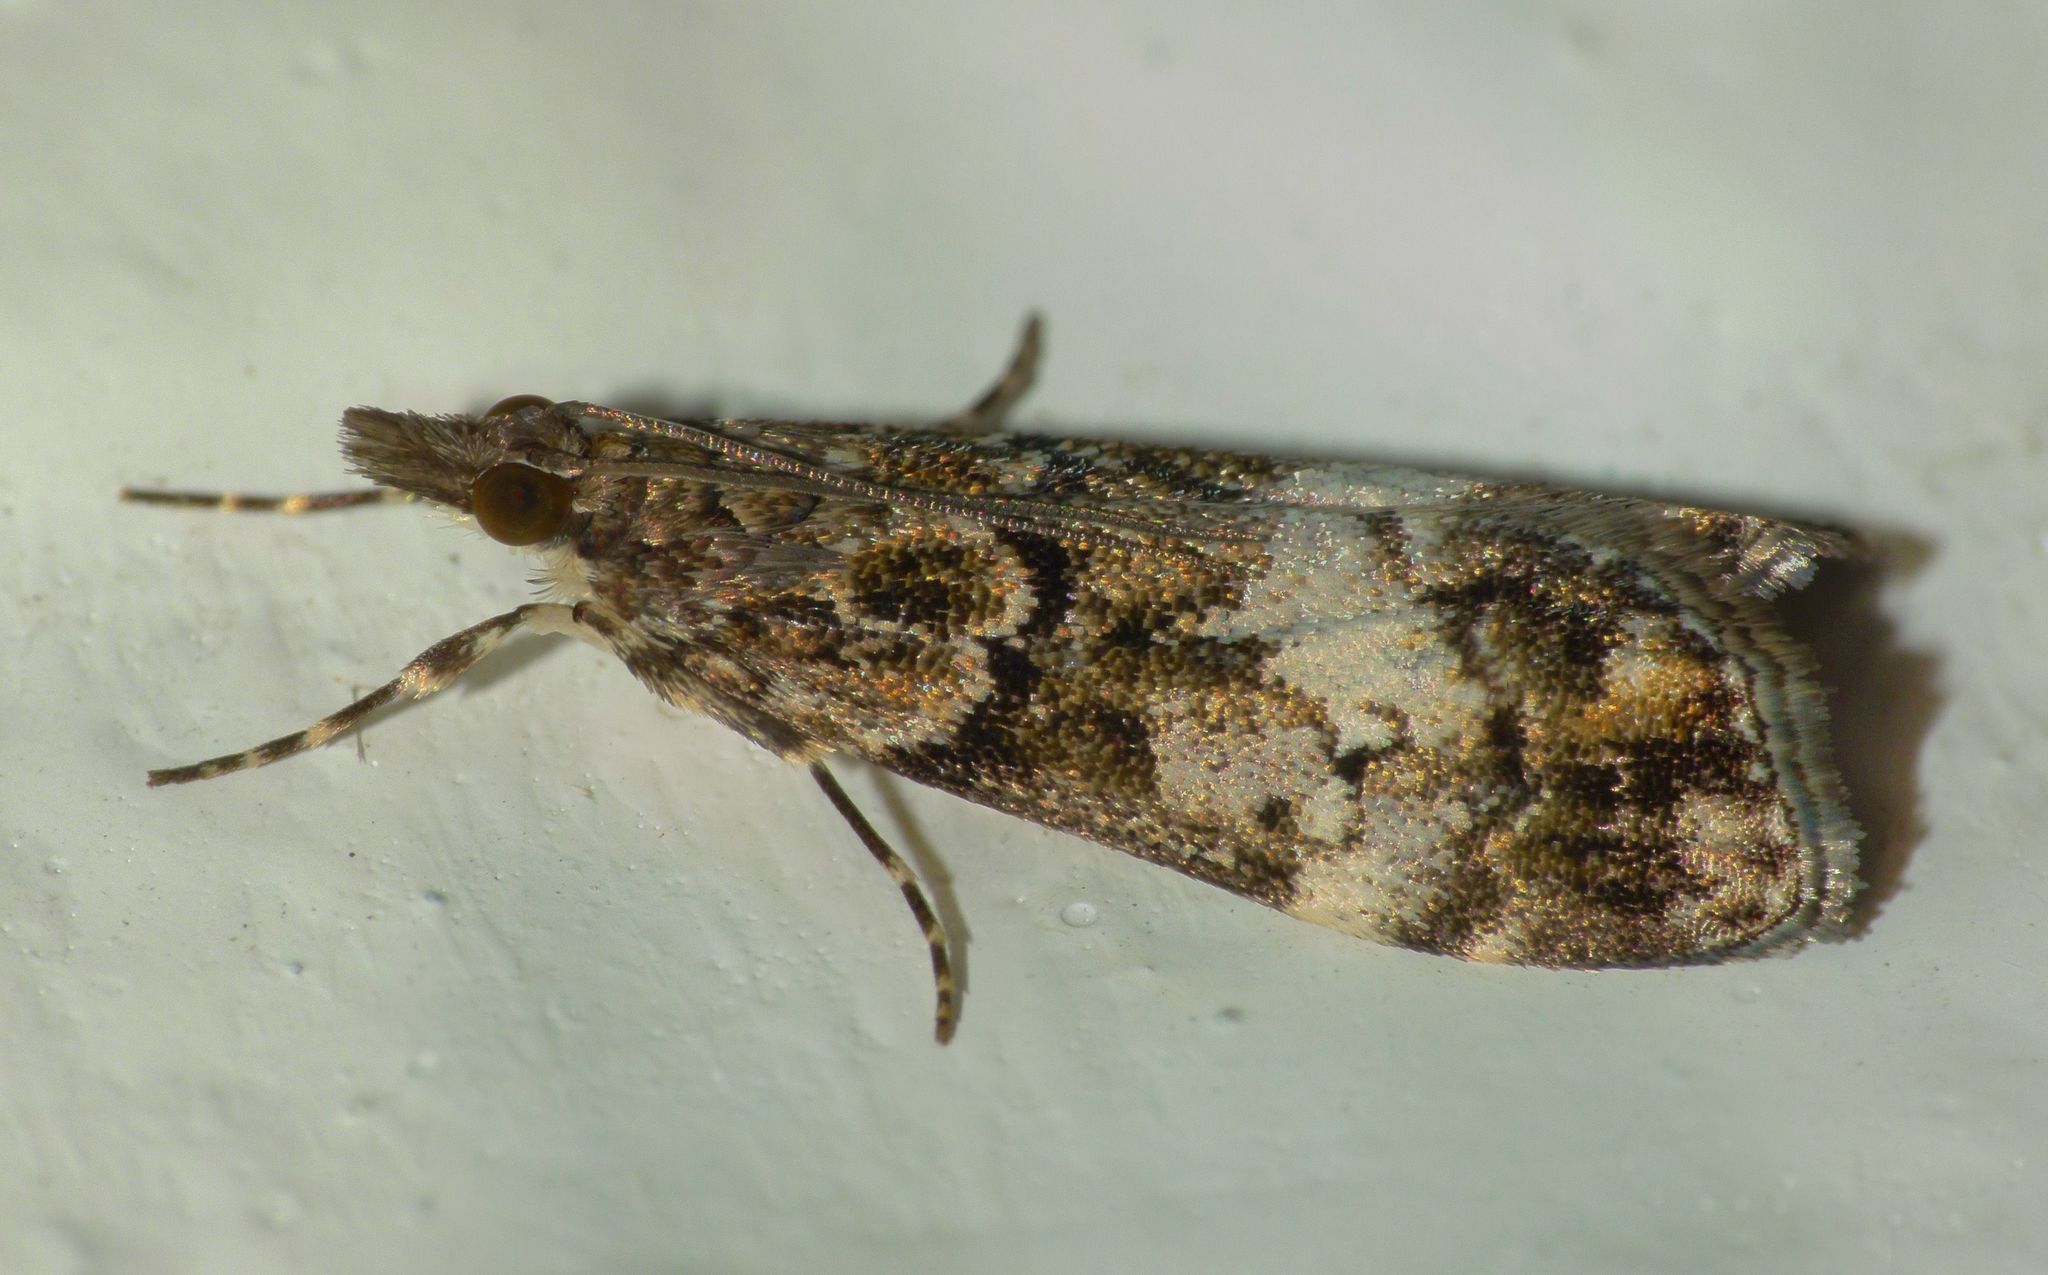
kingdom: Animalia
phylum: Arthropoda
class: Insecta
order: Lepidoptera
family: Crambidae
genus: Eudonia
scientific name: Eudonia dinodes
